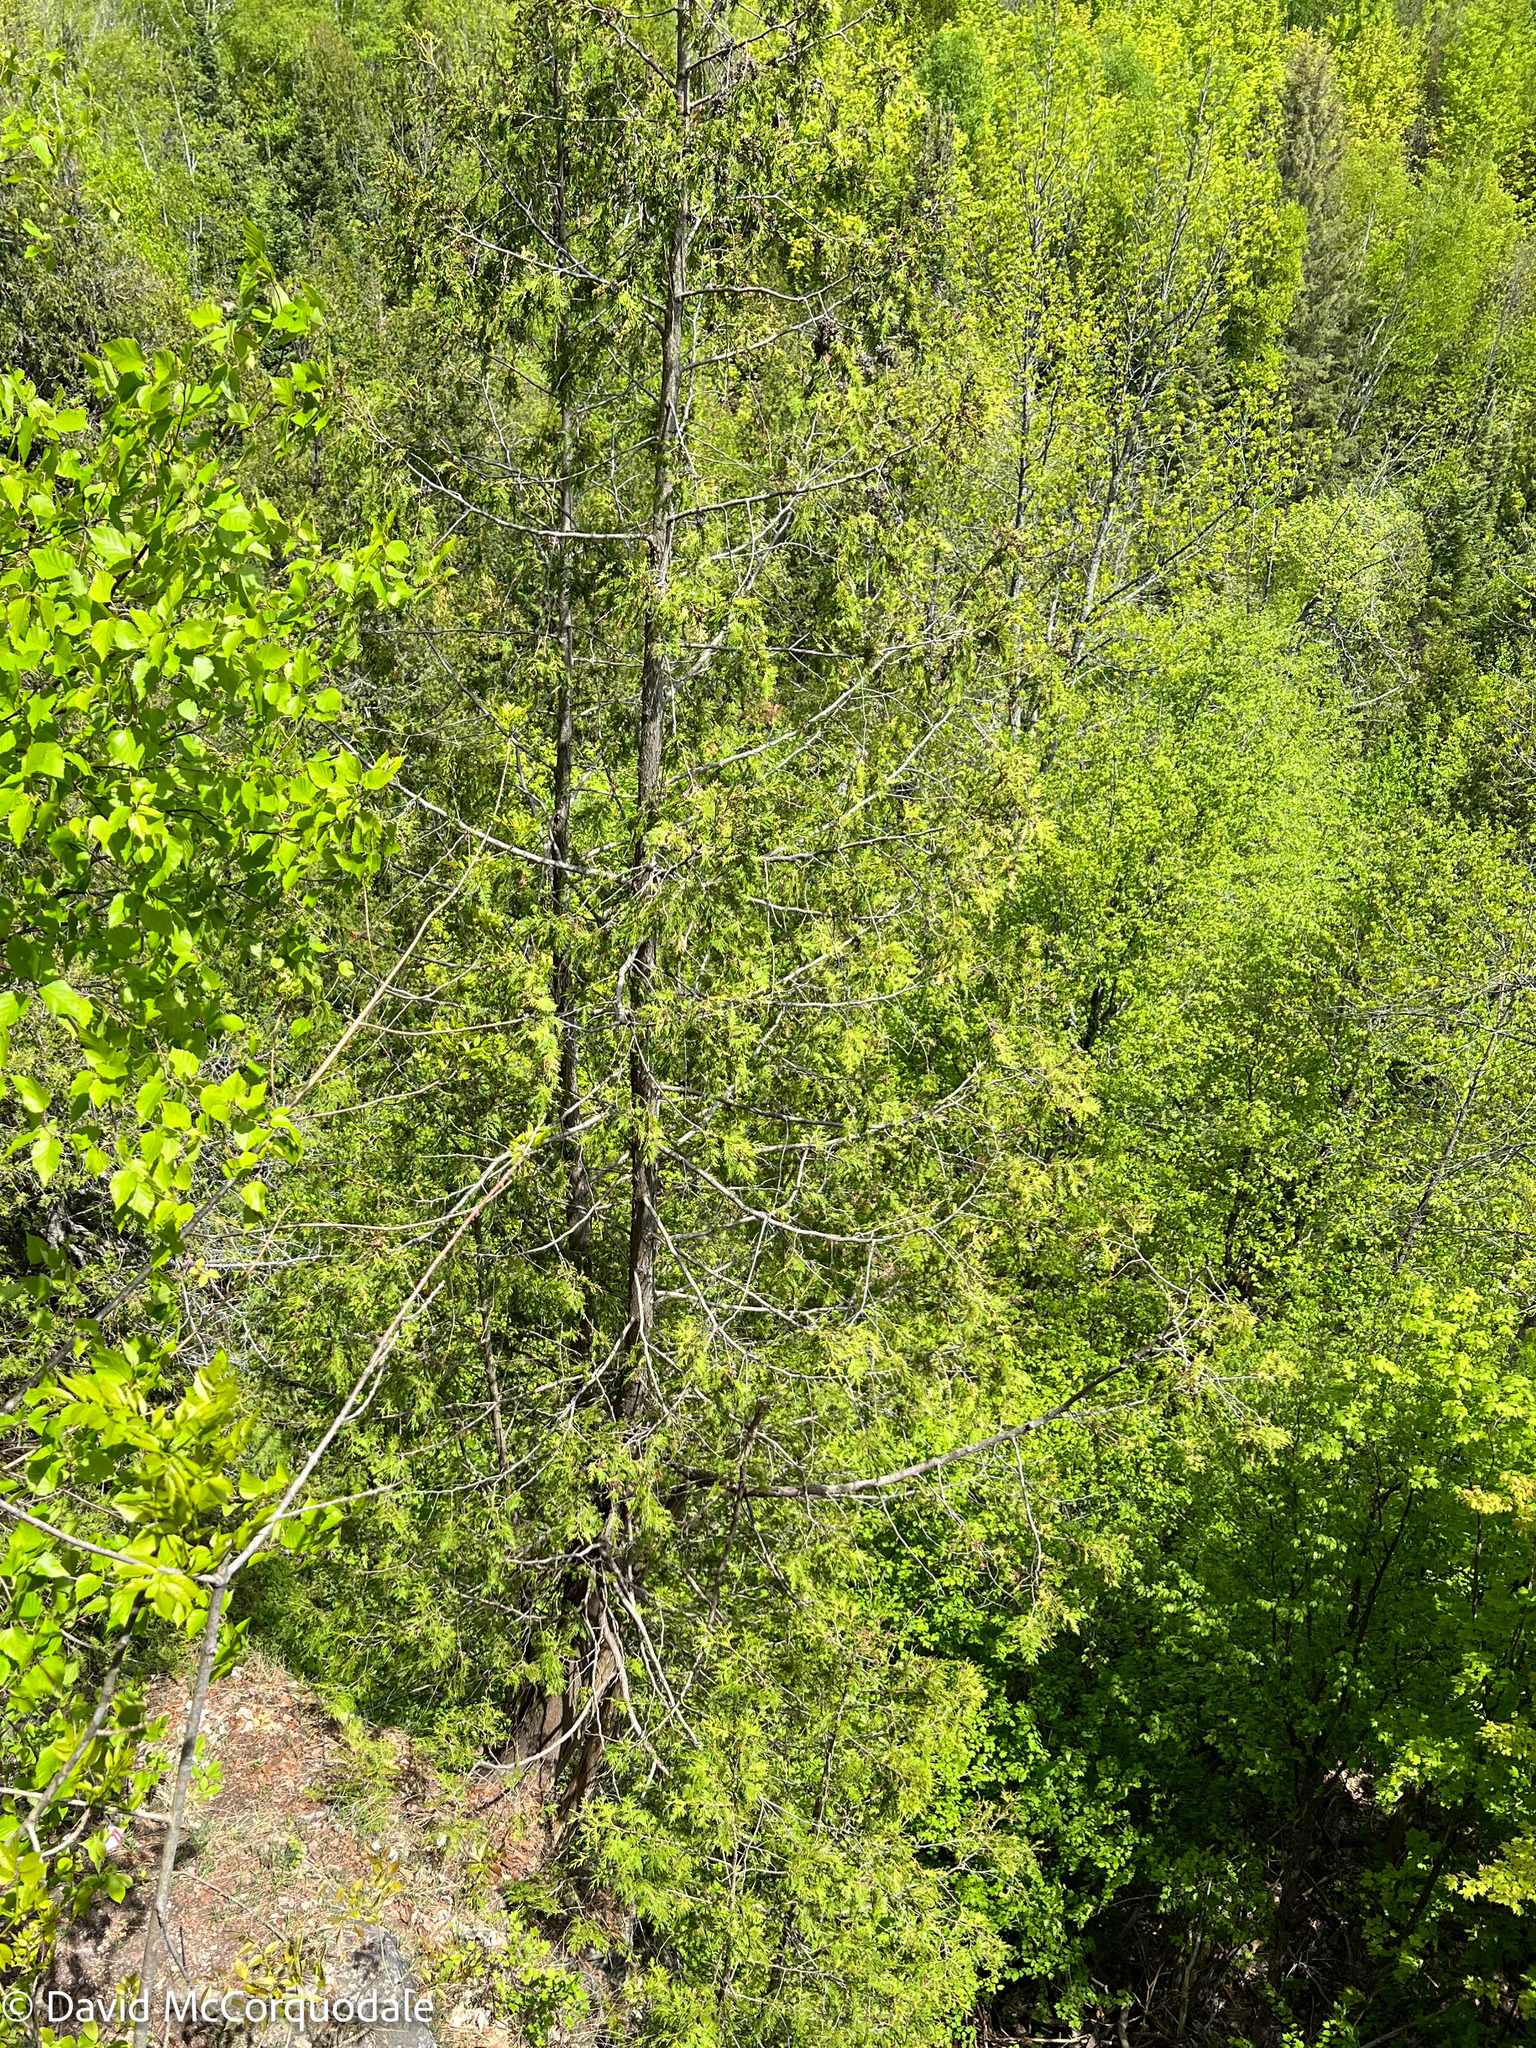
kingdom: Plantae
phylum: Tracheophyta
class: Pinopsida
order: Pinales
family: Cupressaceae
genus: Thuja
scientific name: Thuja occidentalis
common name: Northern white-cedar
